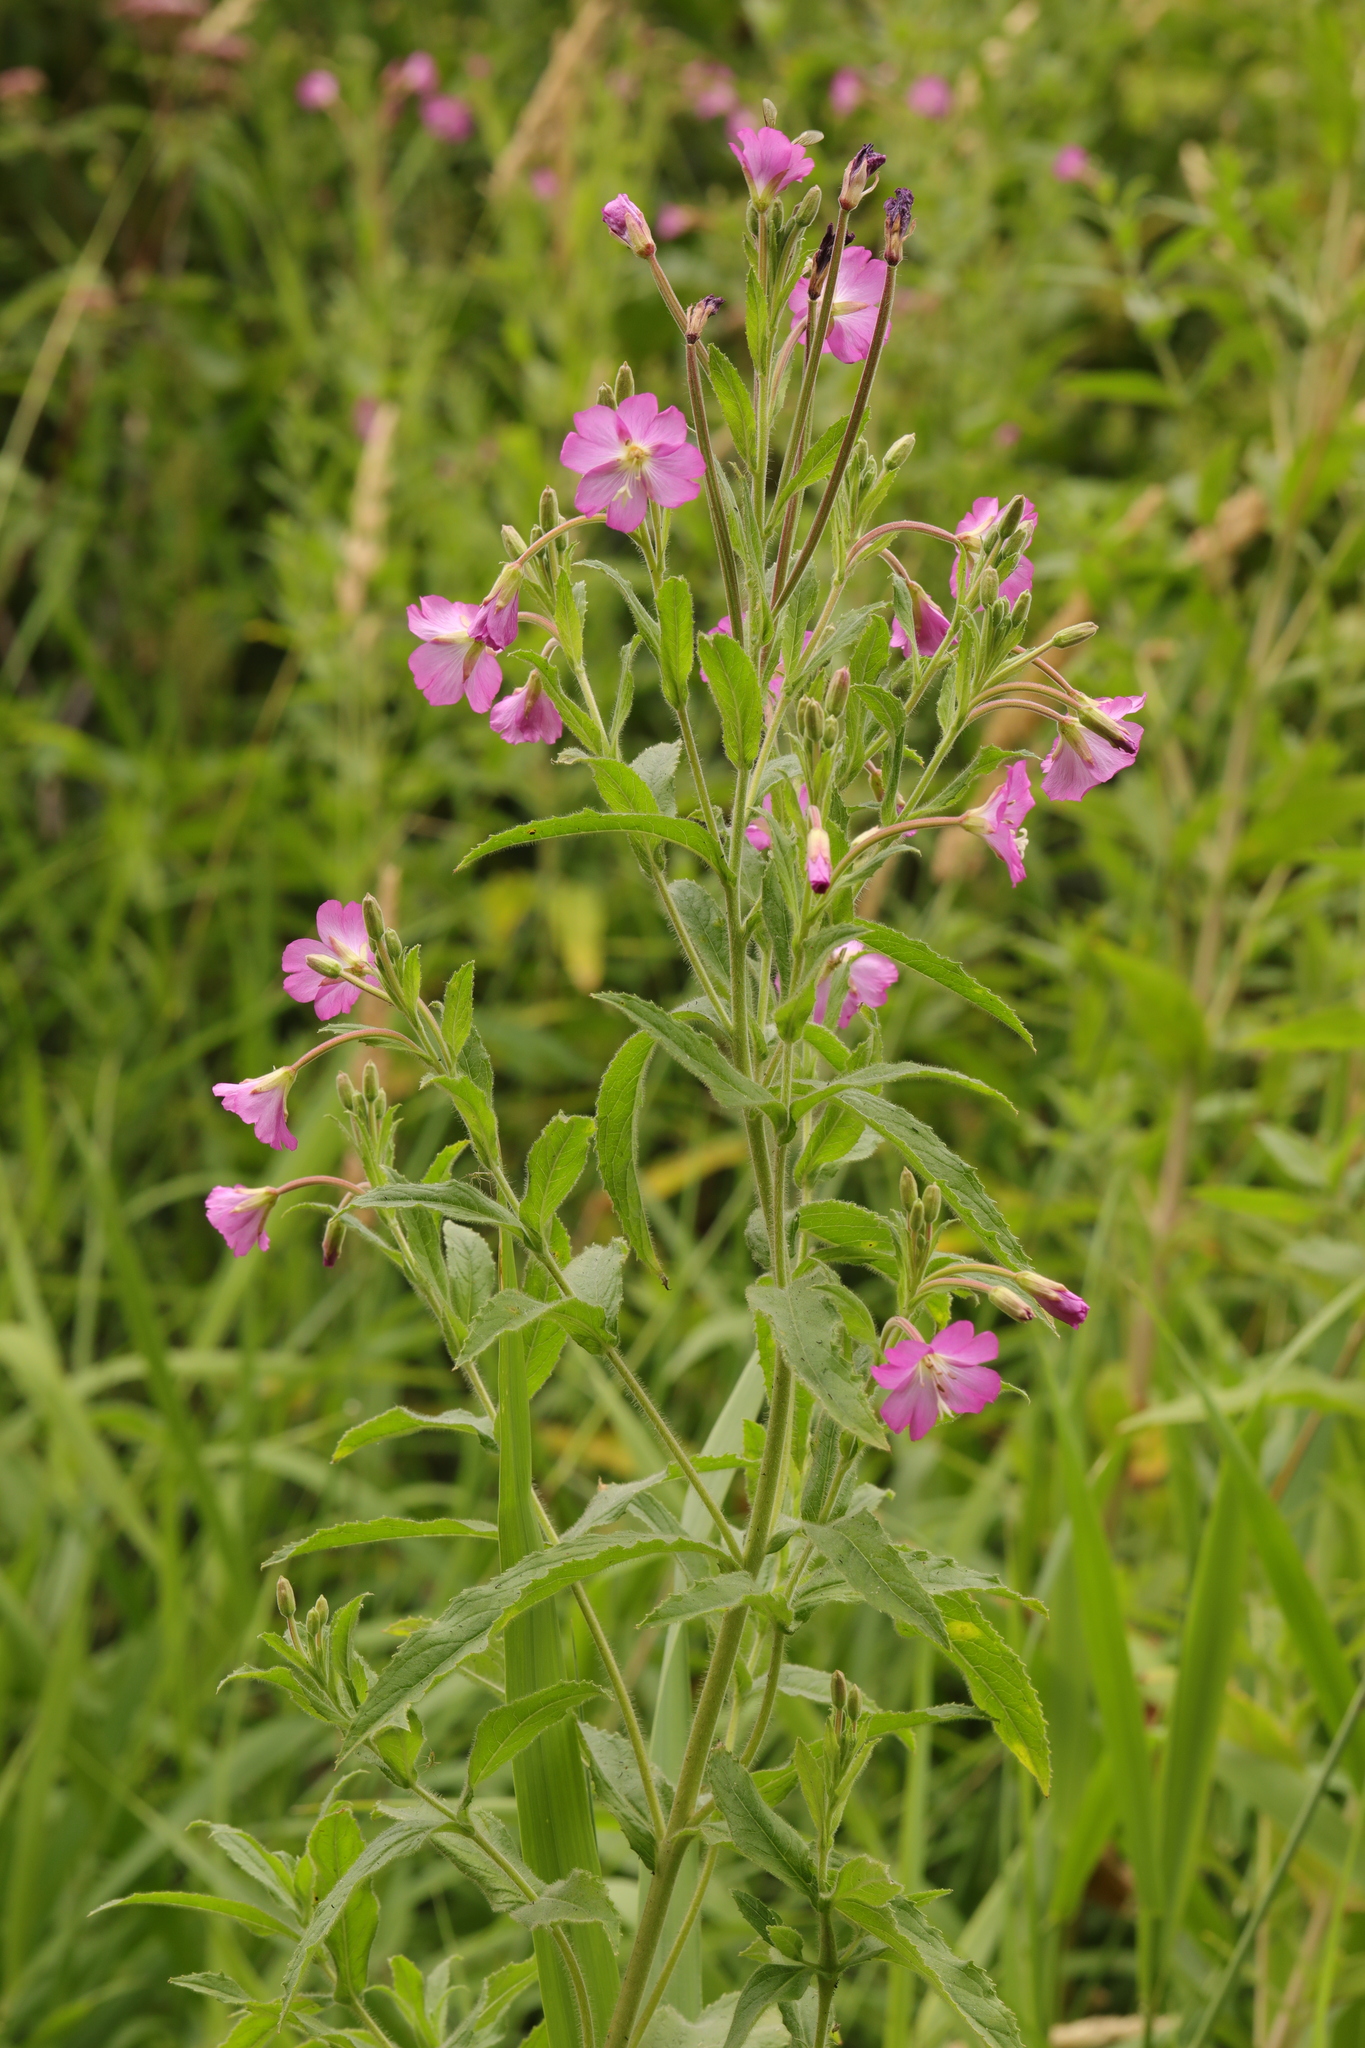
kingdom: Plantae
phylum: Tracheophyta
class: Magnoliopsida
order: Myrtales
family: Onagraceae
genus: Epilobium
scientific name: Epilobium hirsutum
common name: Great willowherb
